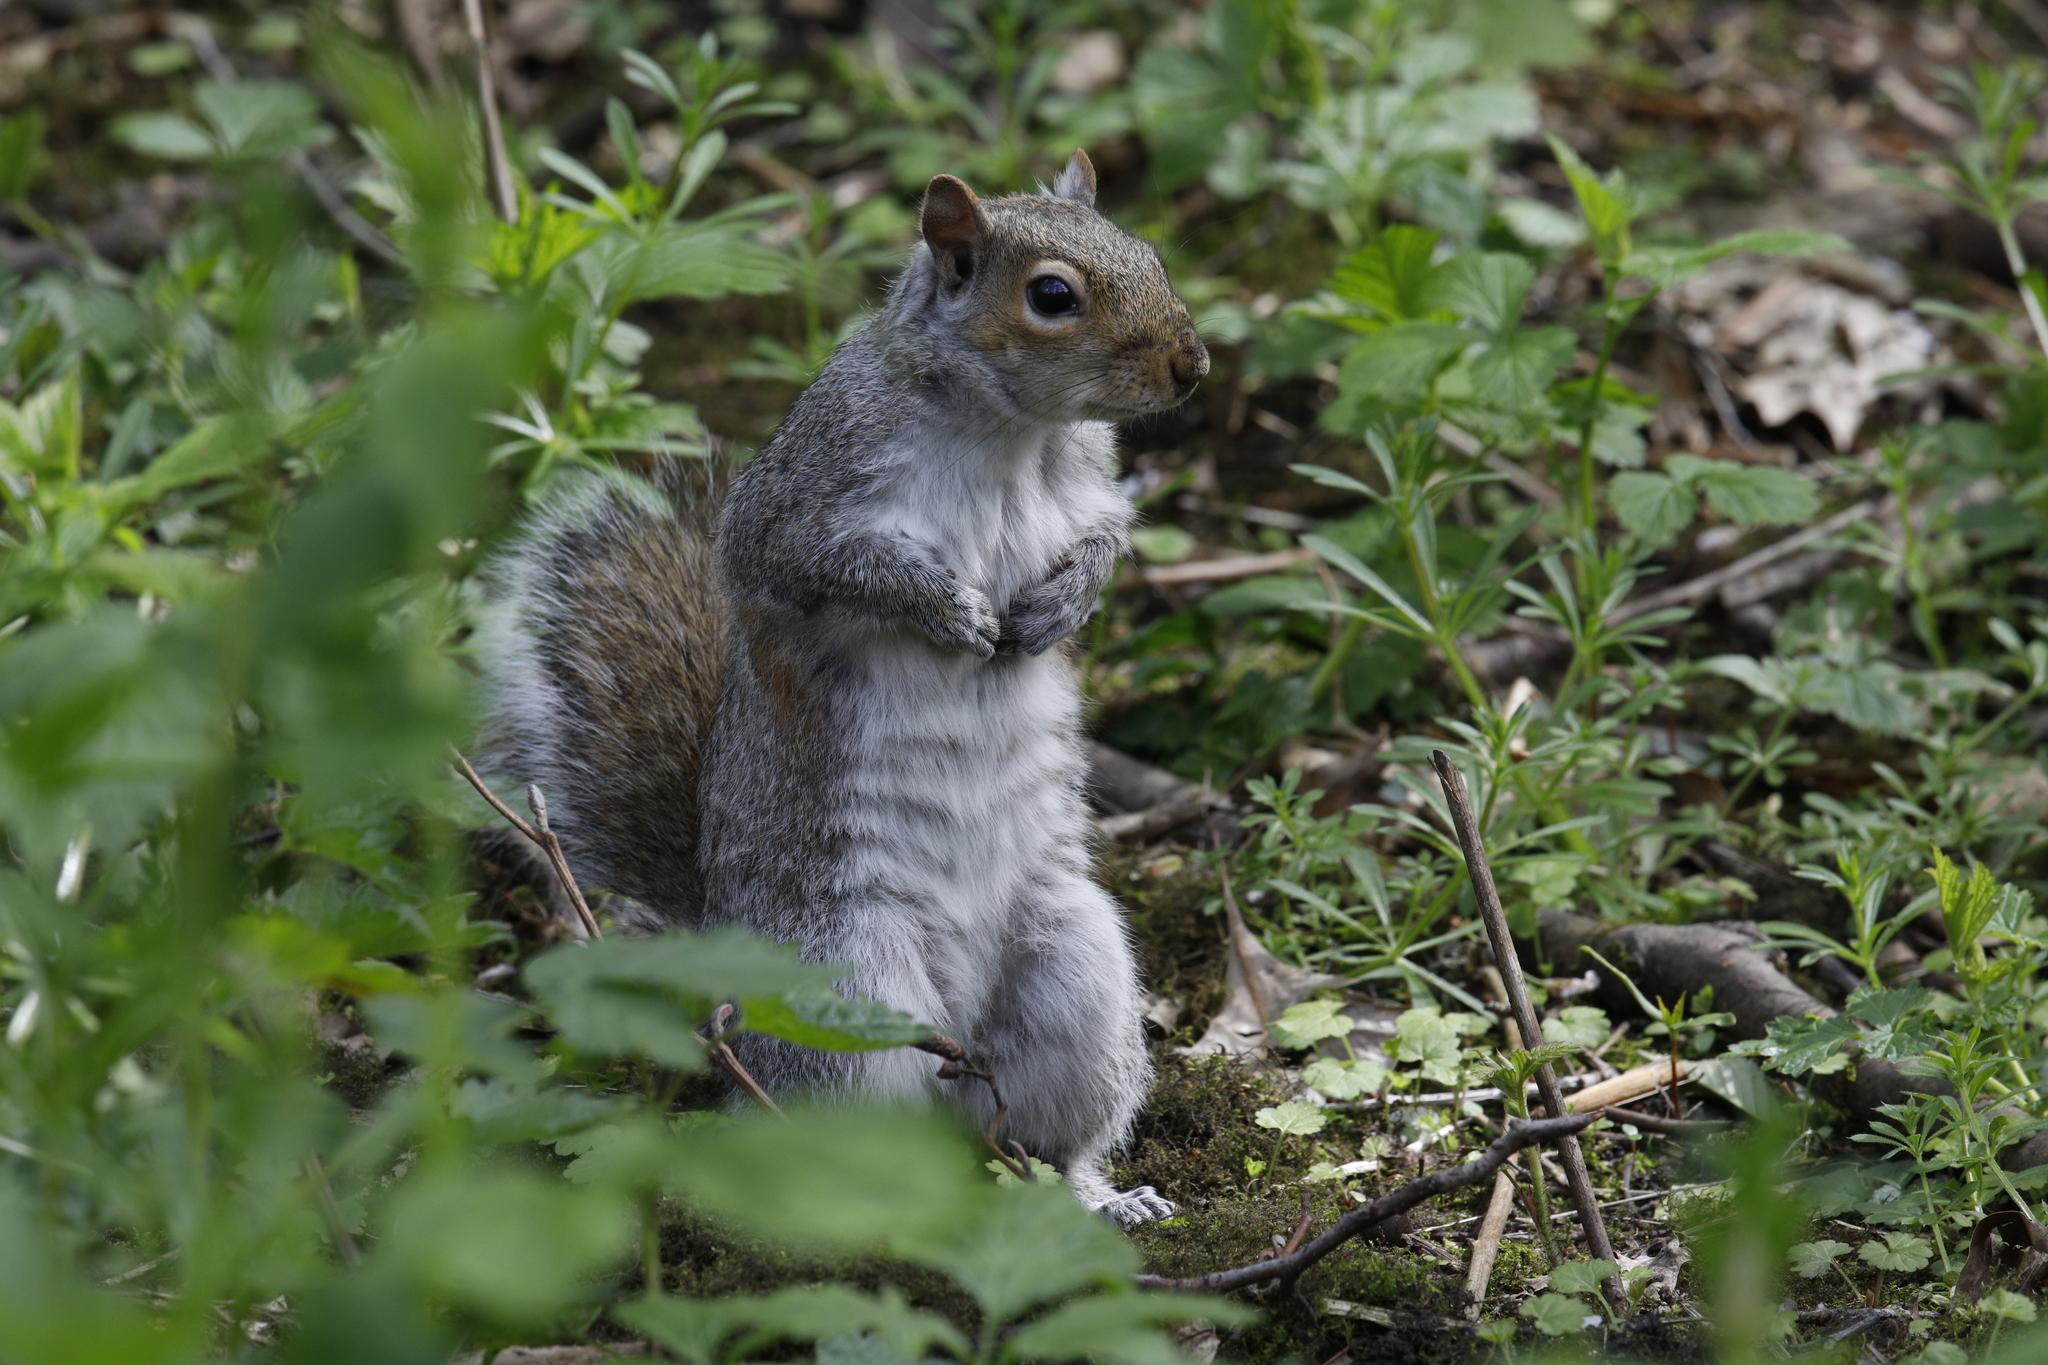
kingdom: Animalia
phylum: Chordata
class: Mammalia
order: Rodentia
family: Sciuridae
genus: Sciurus
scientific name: Sciurus carolinensis
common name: Eastern gray squirrel
